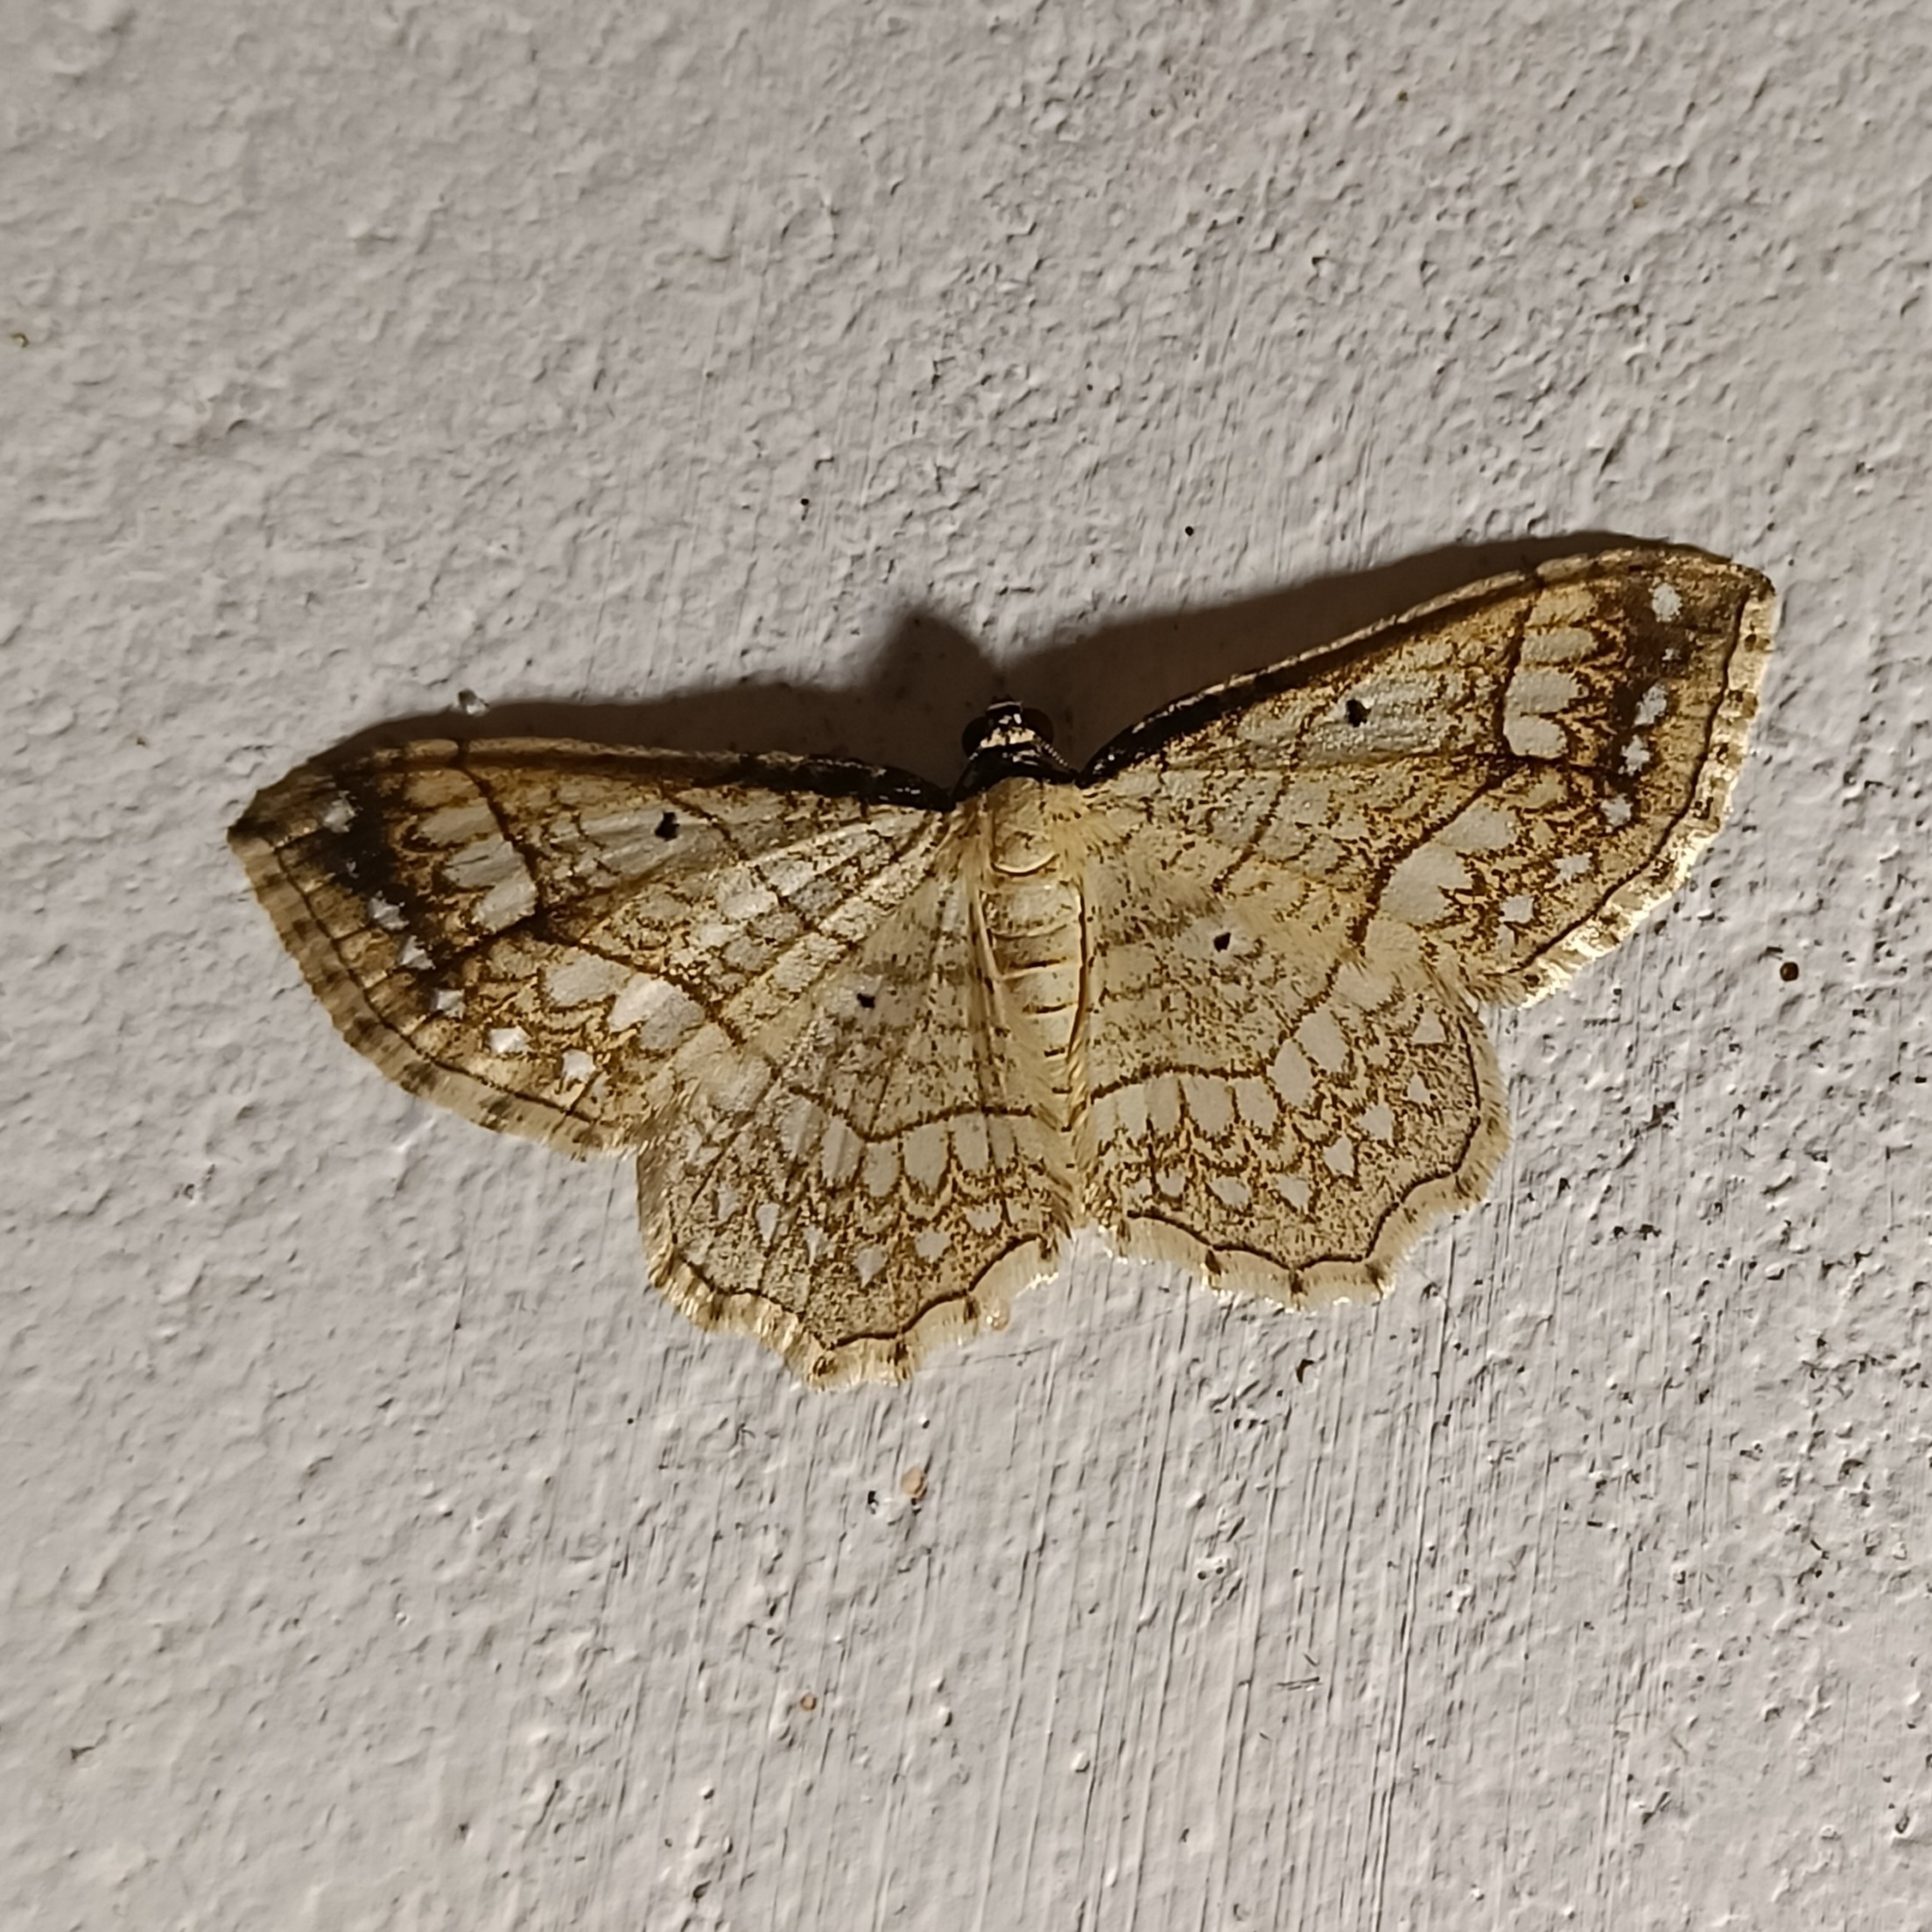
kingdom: Animalia
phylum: Arthropoda
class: Insecta
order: Lepidoptera
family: Geometridae
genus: Laciniodes
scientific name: Laciniodes plurilinearia
